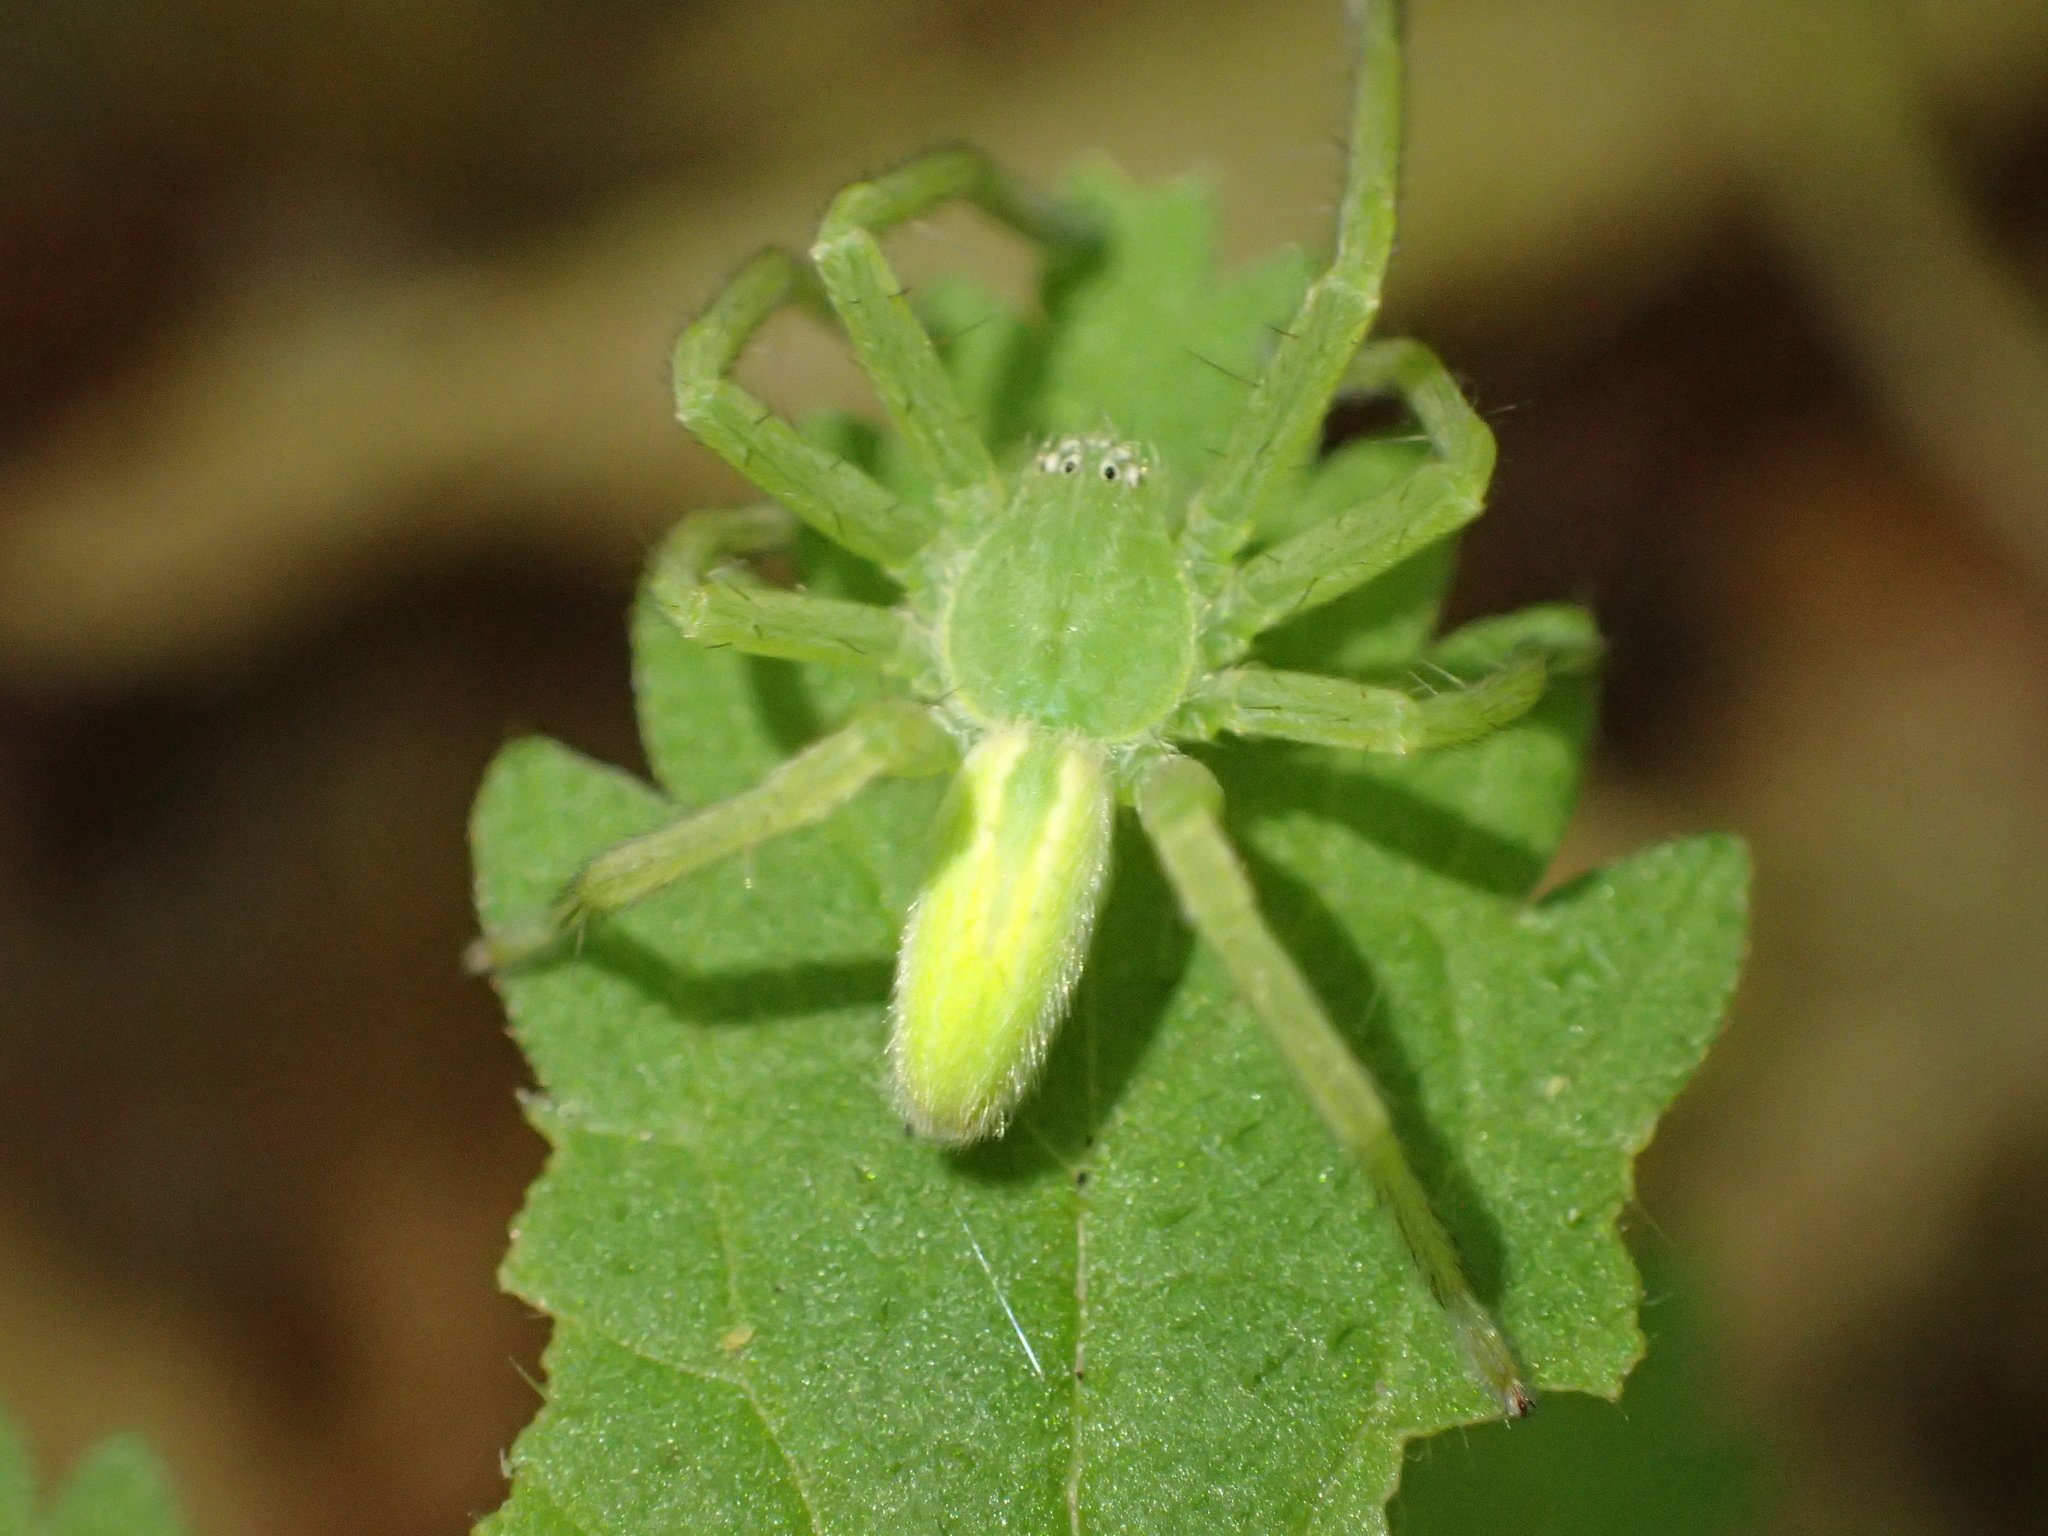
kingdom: Animalia
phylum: Arthropoda
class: Arachnida
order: Araneae
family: Sparassidae
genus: Micrommata
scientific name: Micrommata virescens
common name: Green spider
